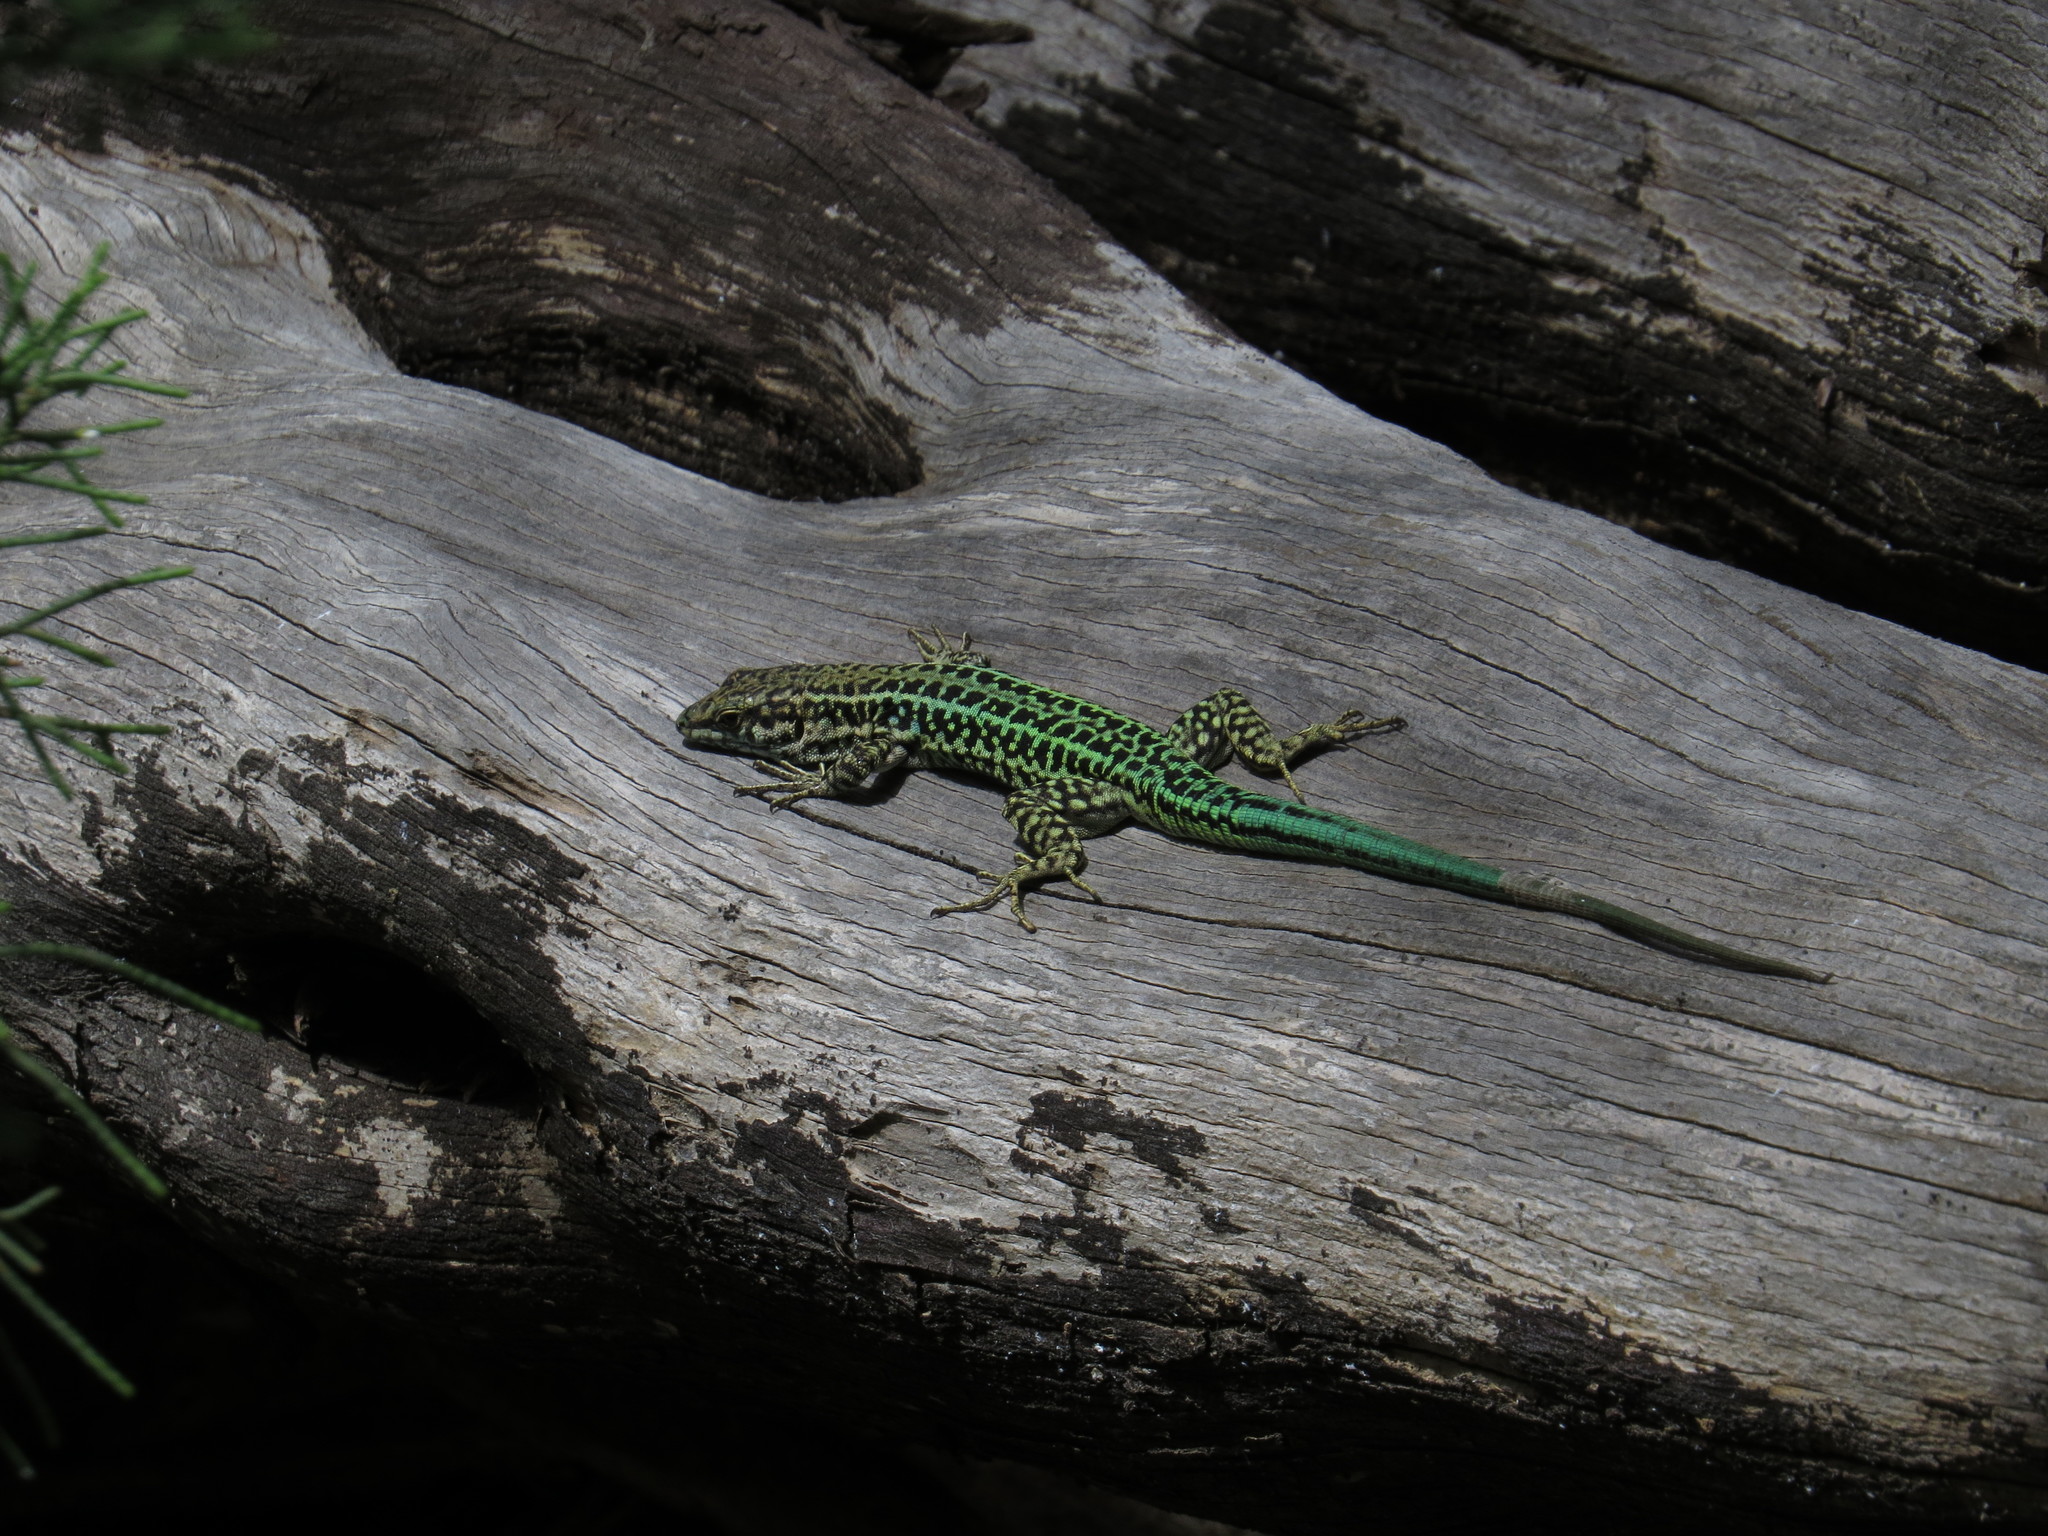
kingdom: Animalia
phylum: Chordata
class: Squamata
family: Lacertidae
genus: Podarcis
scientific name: Podarcis tiliguerta
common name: Tyrrhenian wall lizard
